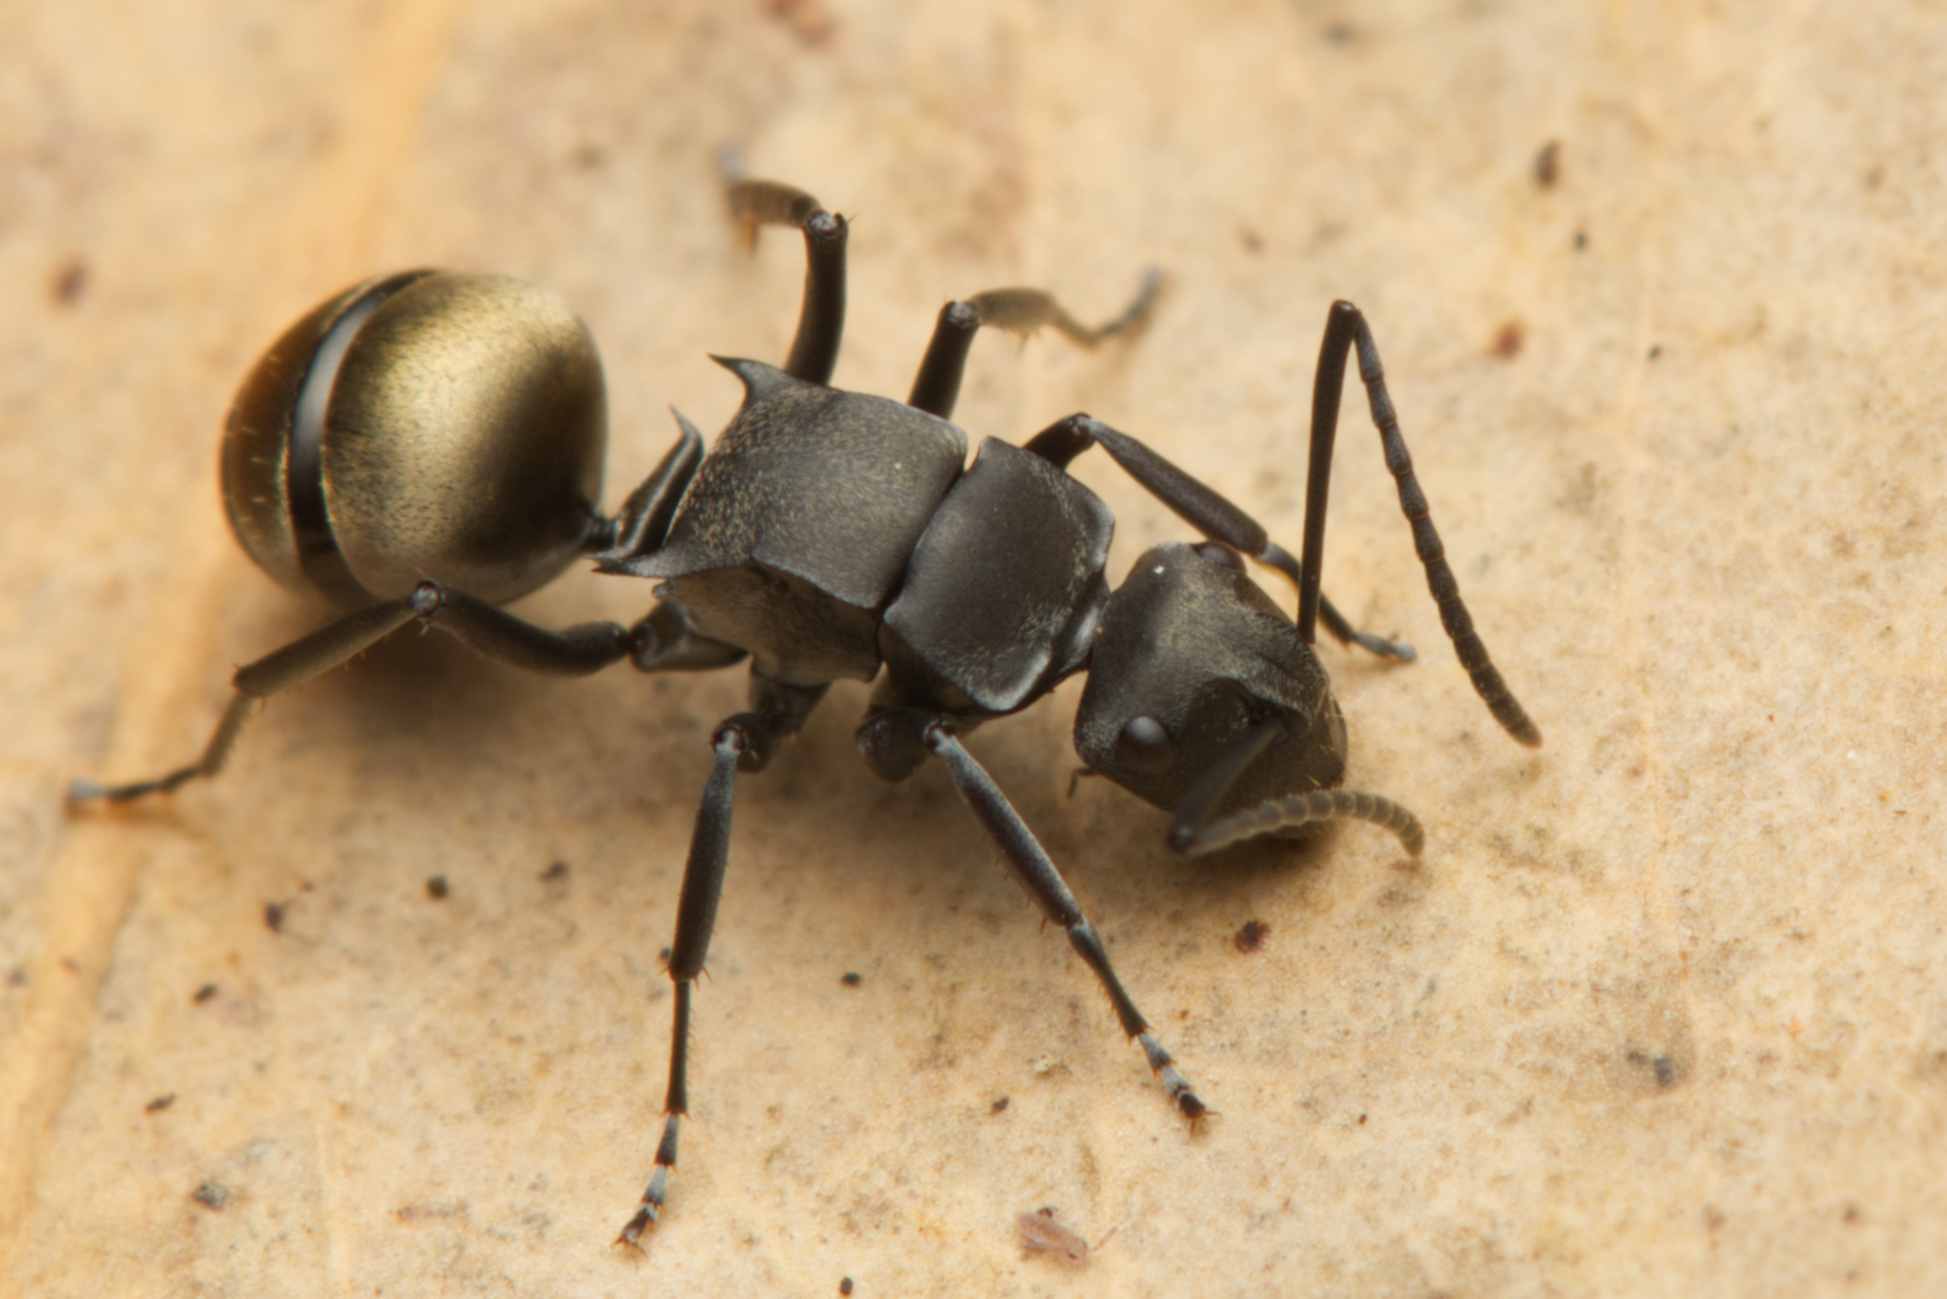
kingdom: Animalia
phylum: Arthropoda
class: Insecta
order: Hymenoptera
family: Formicidae
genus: Polyrhachis
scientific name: Polyrhachis tubifera
